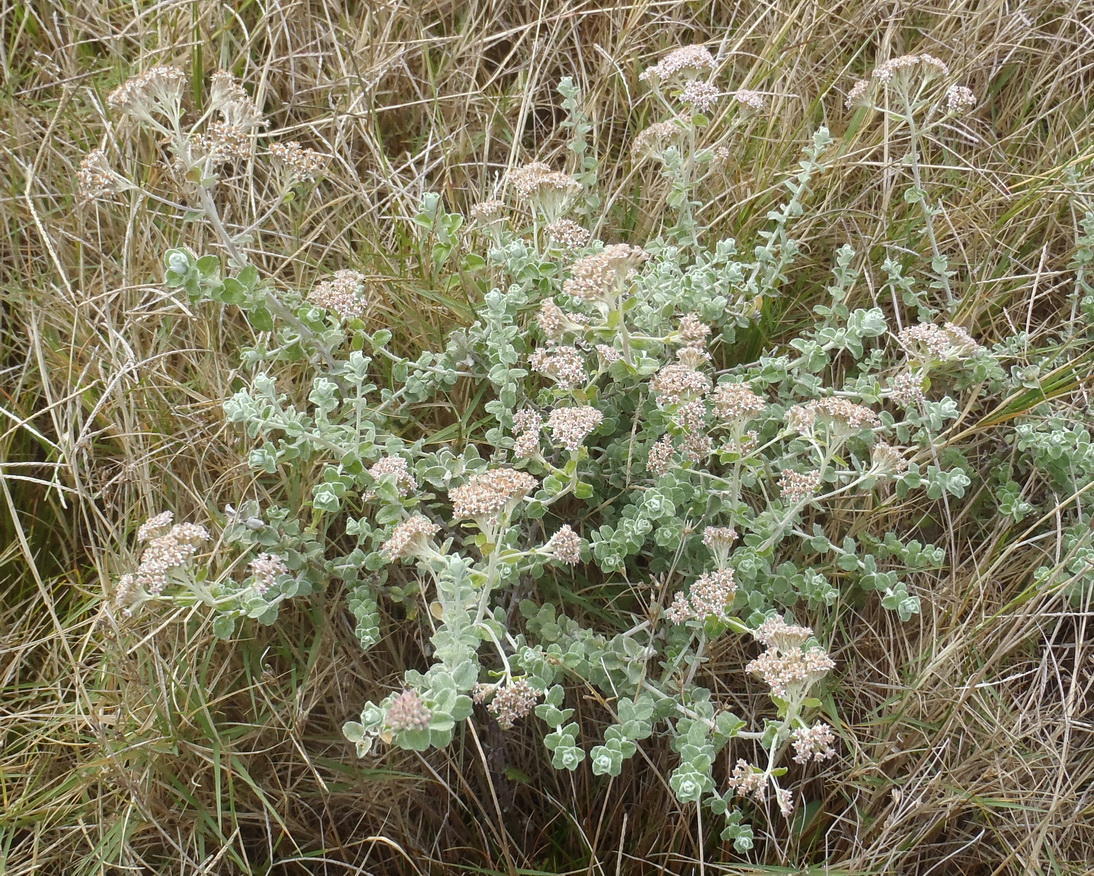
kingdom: Plantae
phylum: Tracheophyta
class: Magnoliopsida
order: Asterales
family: Asteraceae
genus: Plecostachys
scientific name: Plecostachys serpyllifolia
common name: Petite licorice
